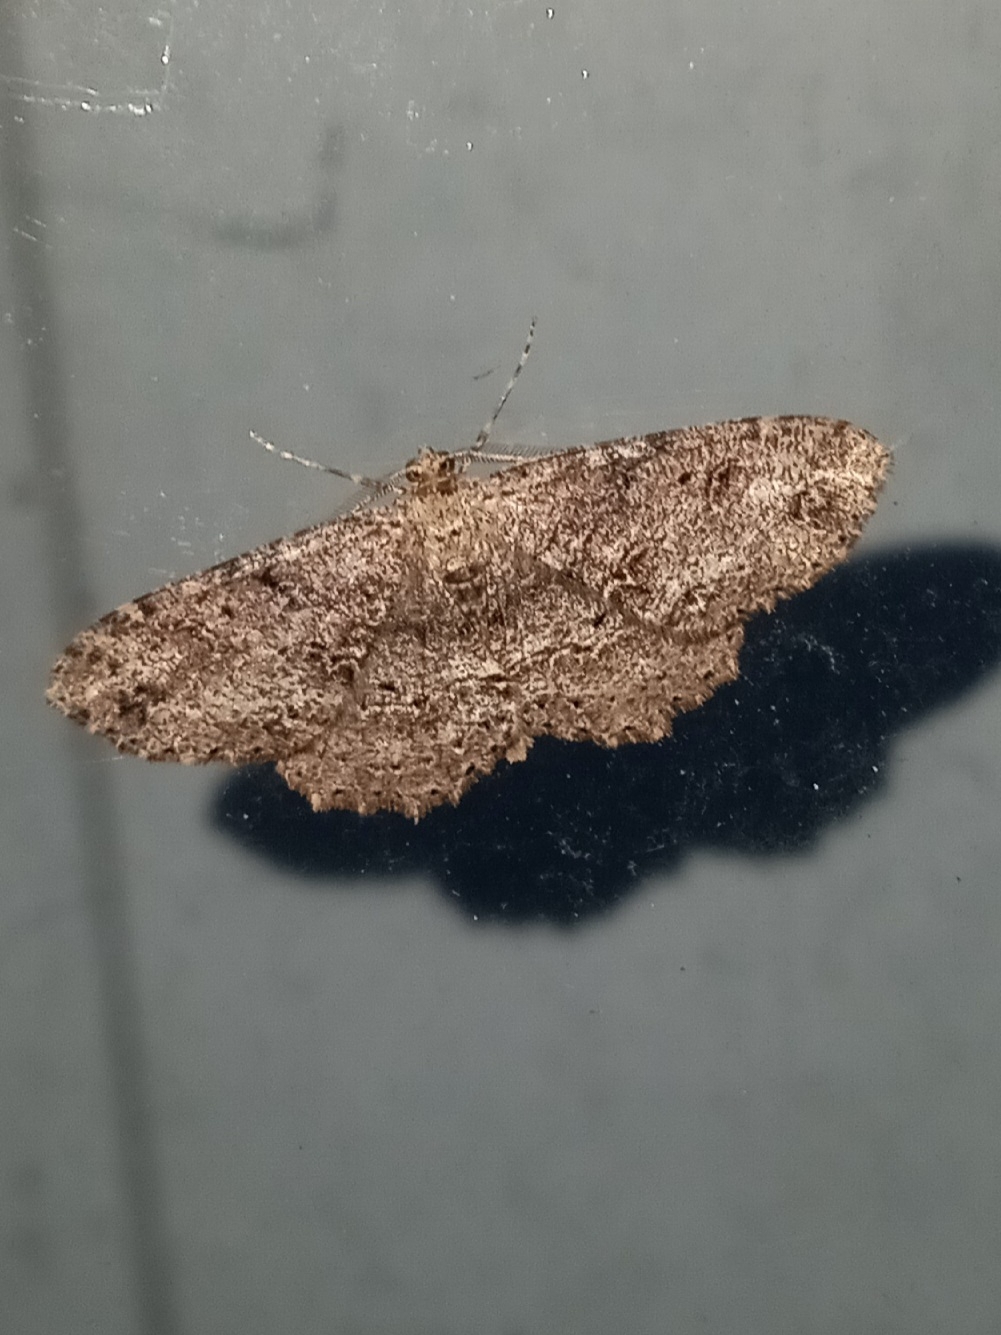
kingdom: Animalia
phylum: Arthropoda
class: Insecta
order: Lepidoptera
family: Geometridae
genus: Melanolophia
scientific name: Melanolophia canadaria
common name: Canadian melanolophia
